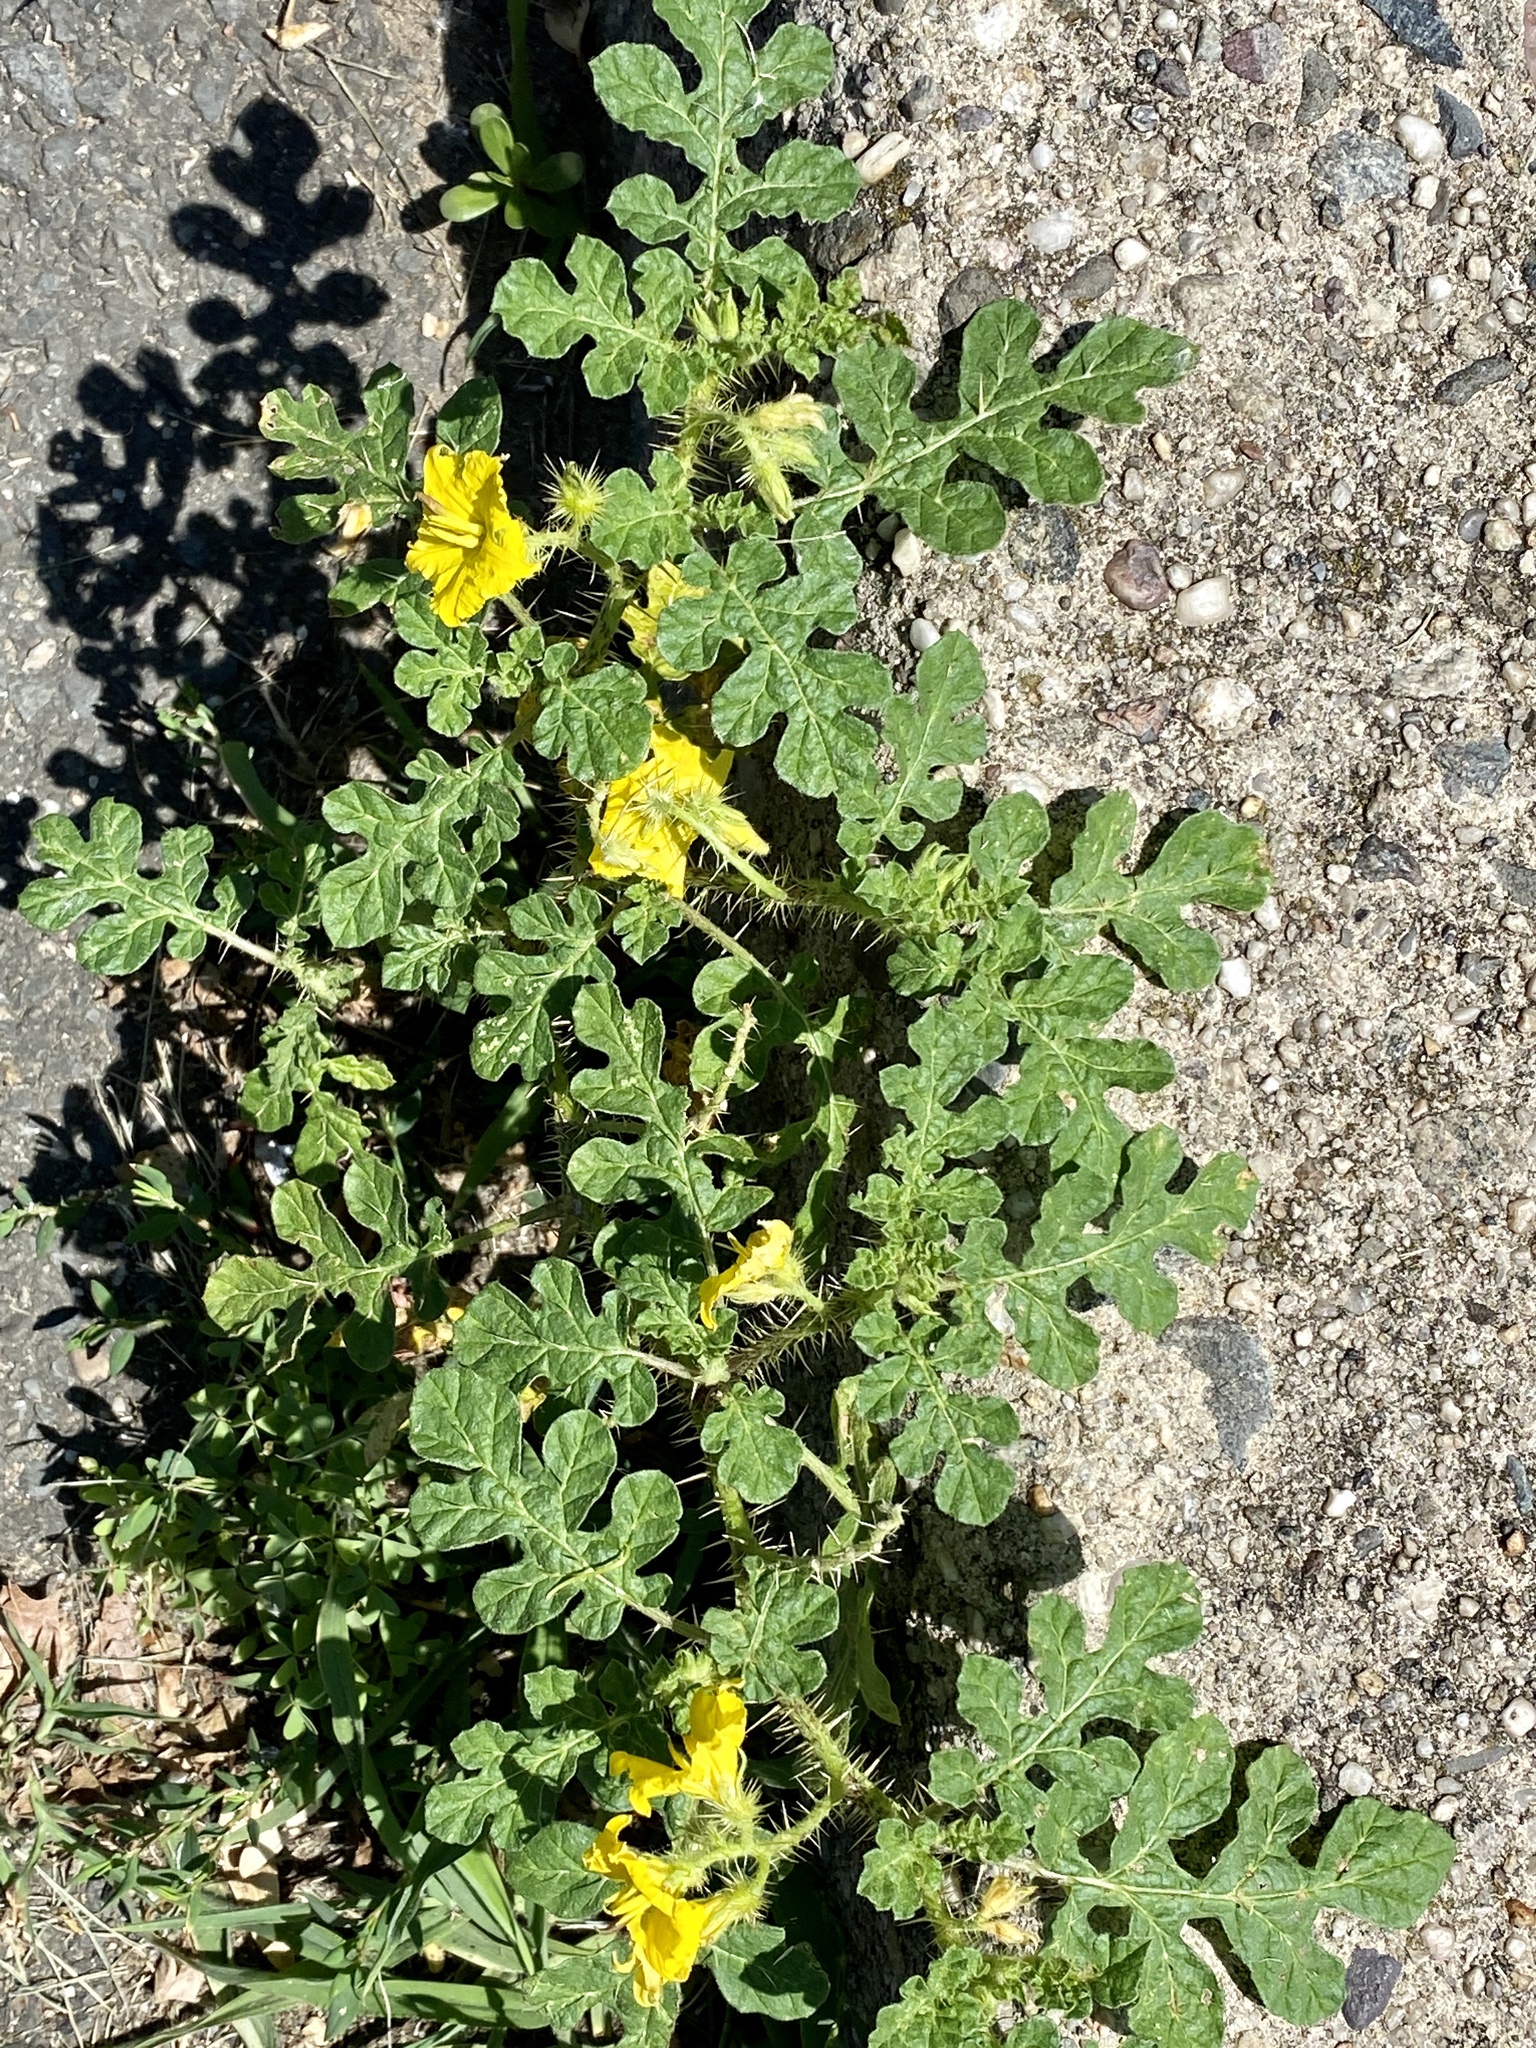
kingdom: Plantae
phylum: Tracheophyta
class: Magnoliopsida
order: Solanales
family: Solanaceae
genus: Solanum
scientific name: Solanum angustifolium
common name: Buffalobur nightshade
